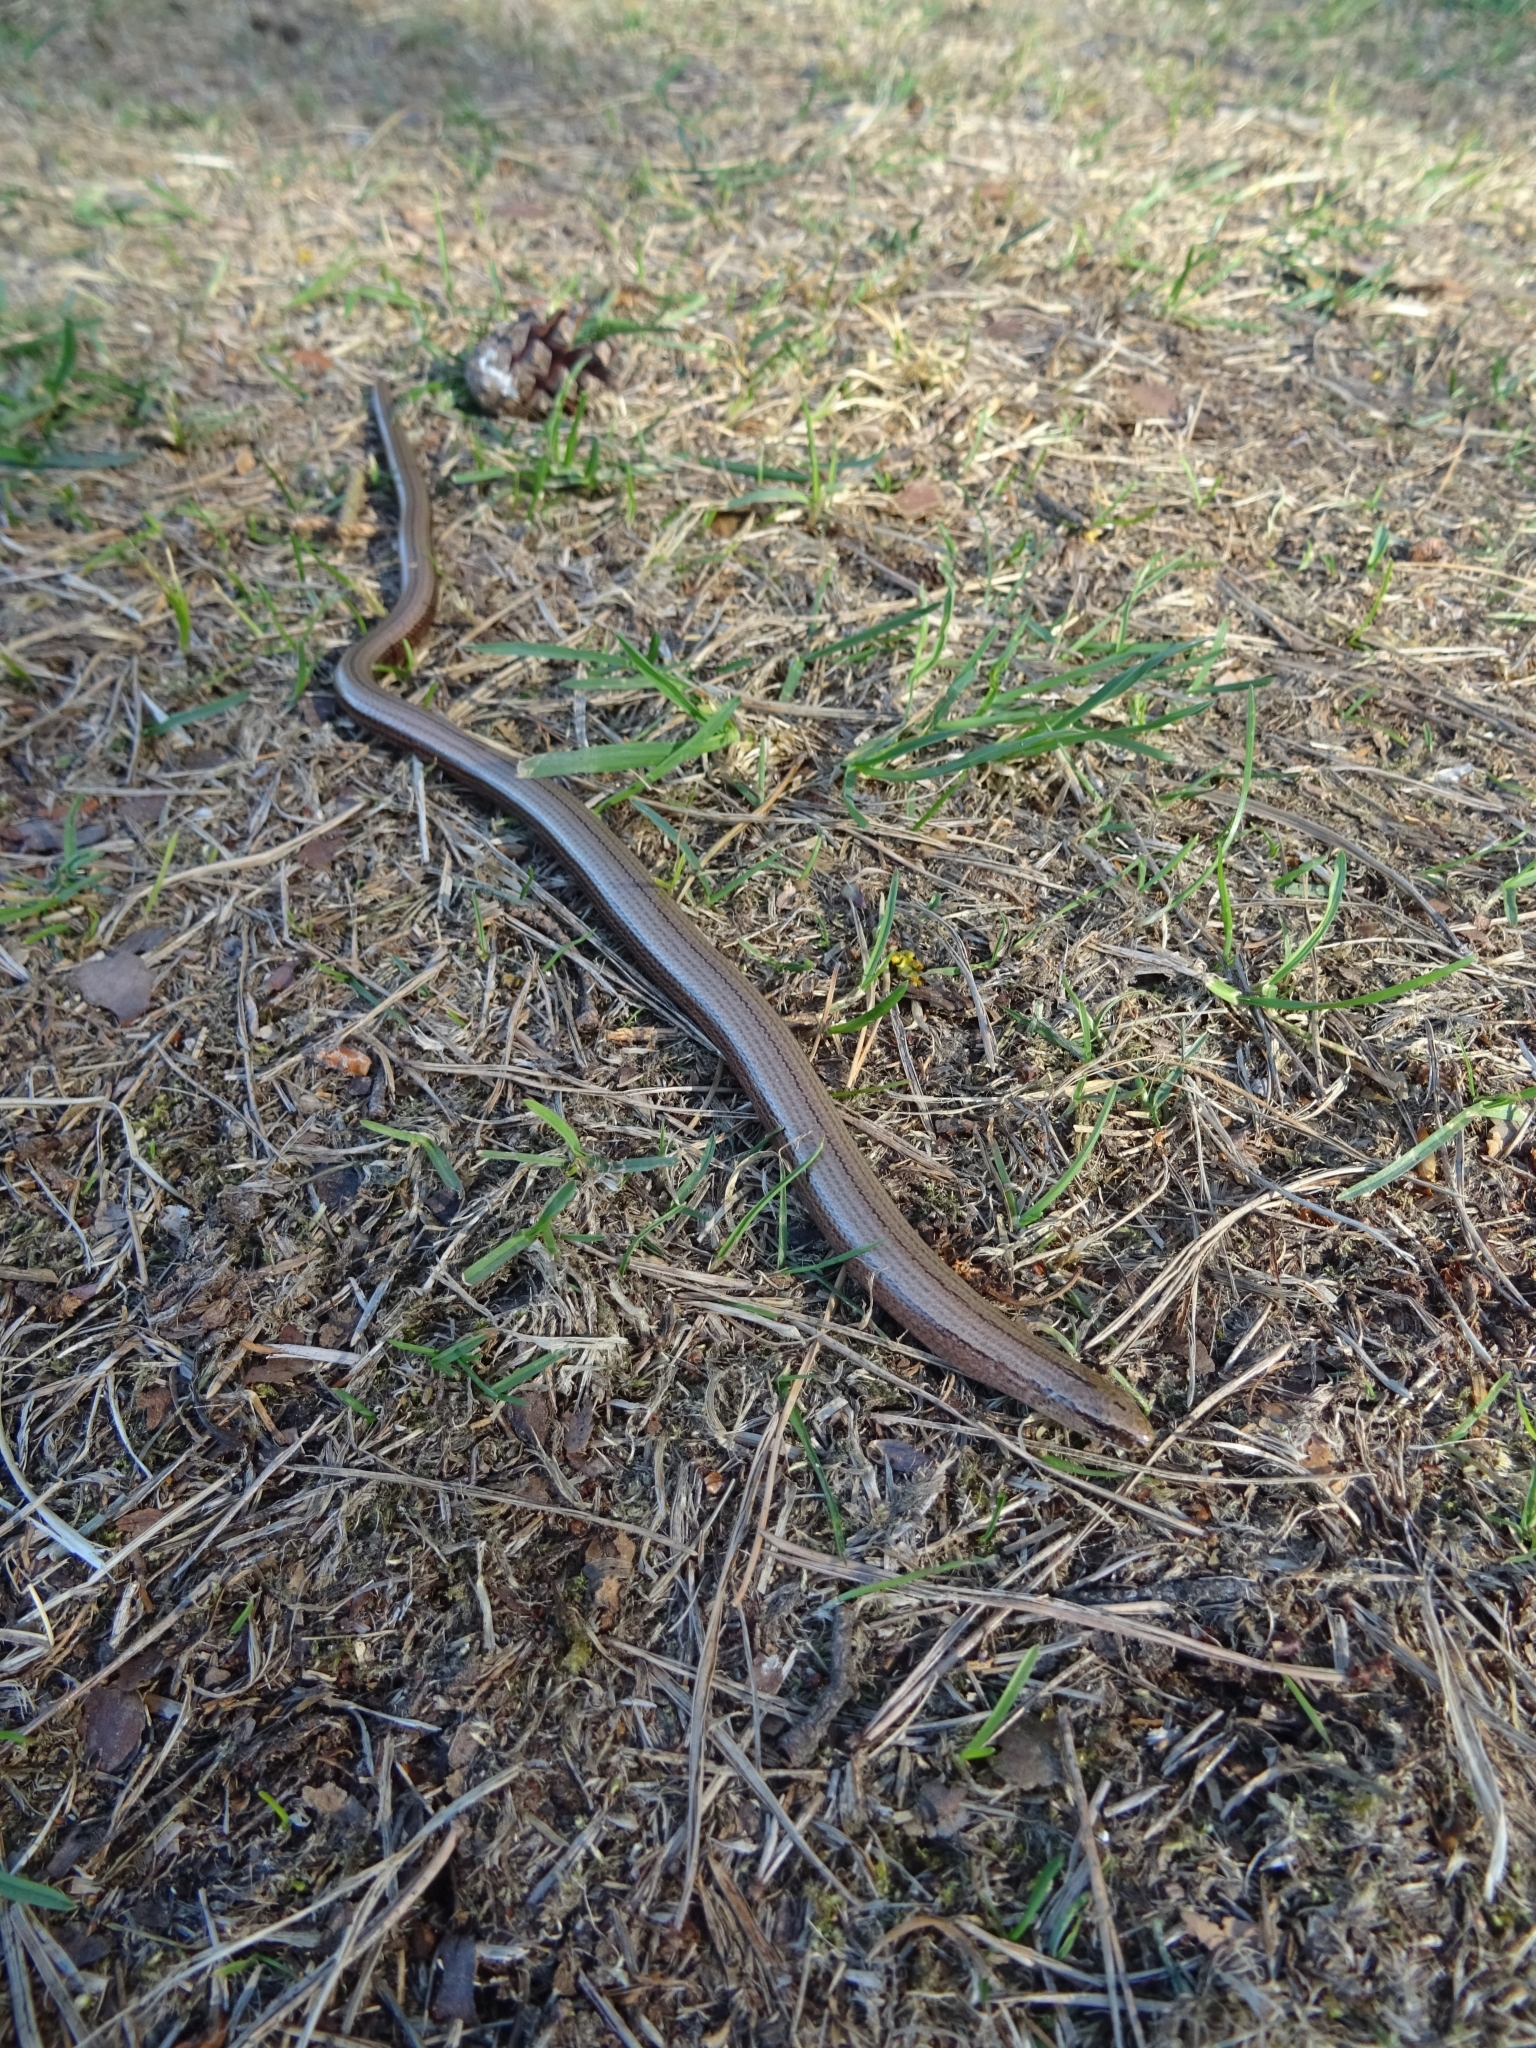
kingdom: Animalia
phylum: Chordata
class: Squamata
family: Anguidae
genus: Anguis
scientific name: Anguis fragilis
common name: Slow worm
